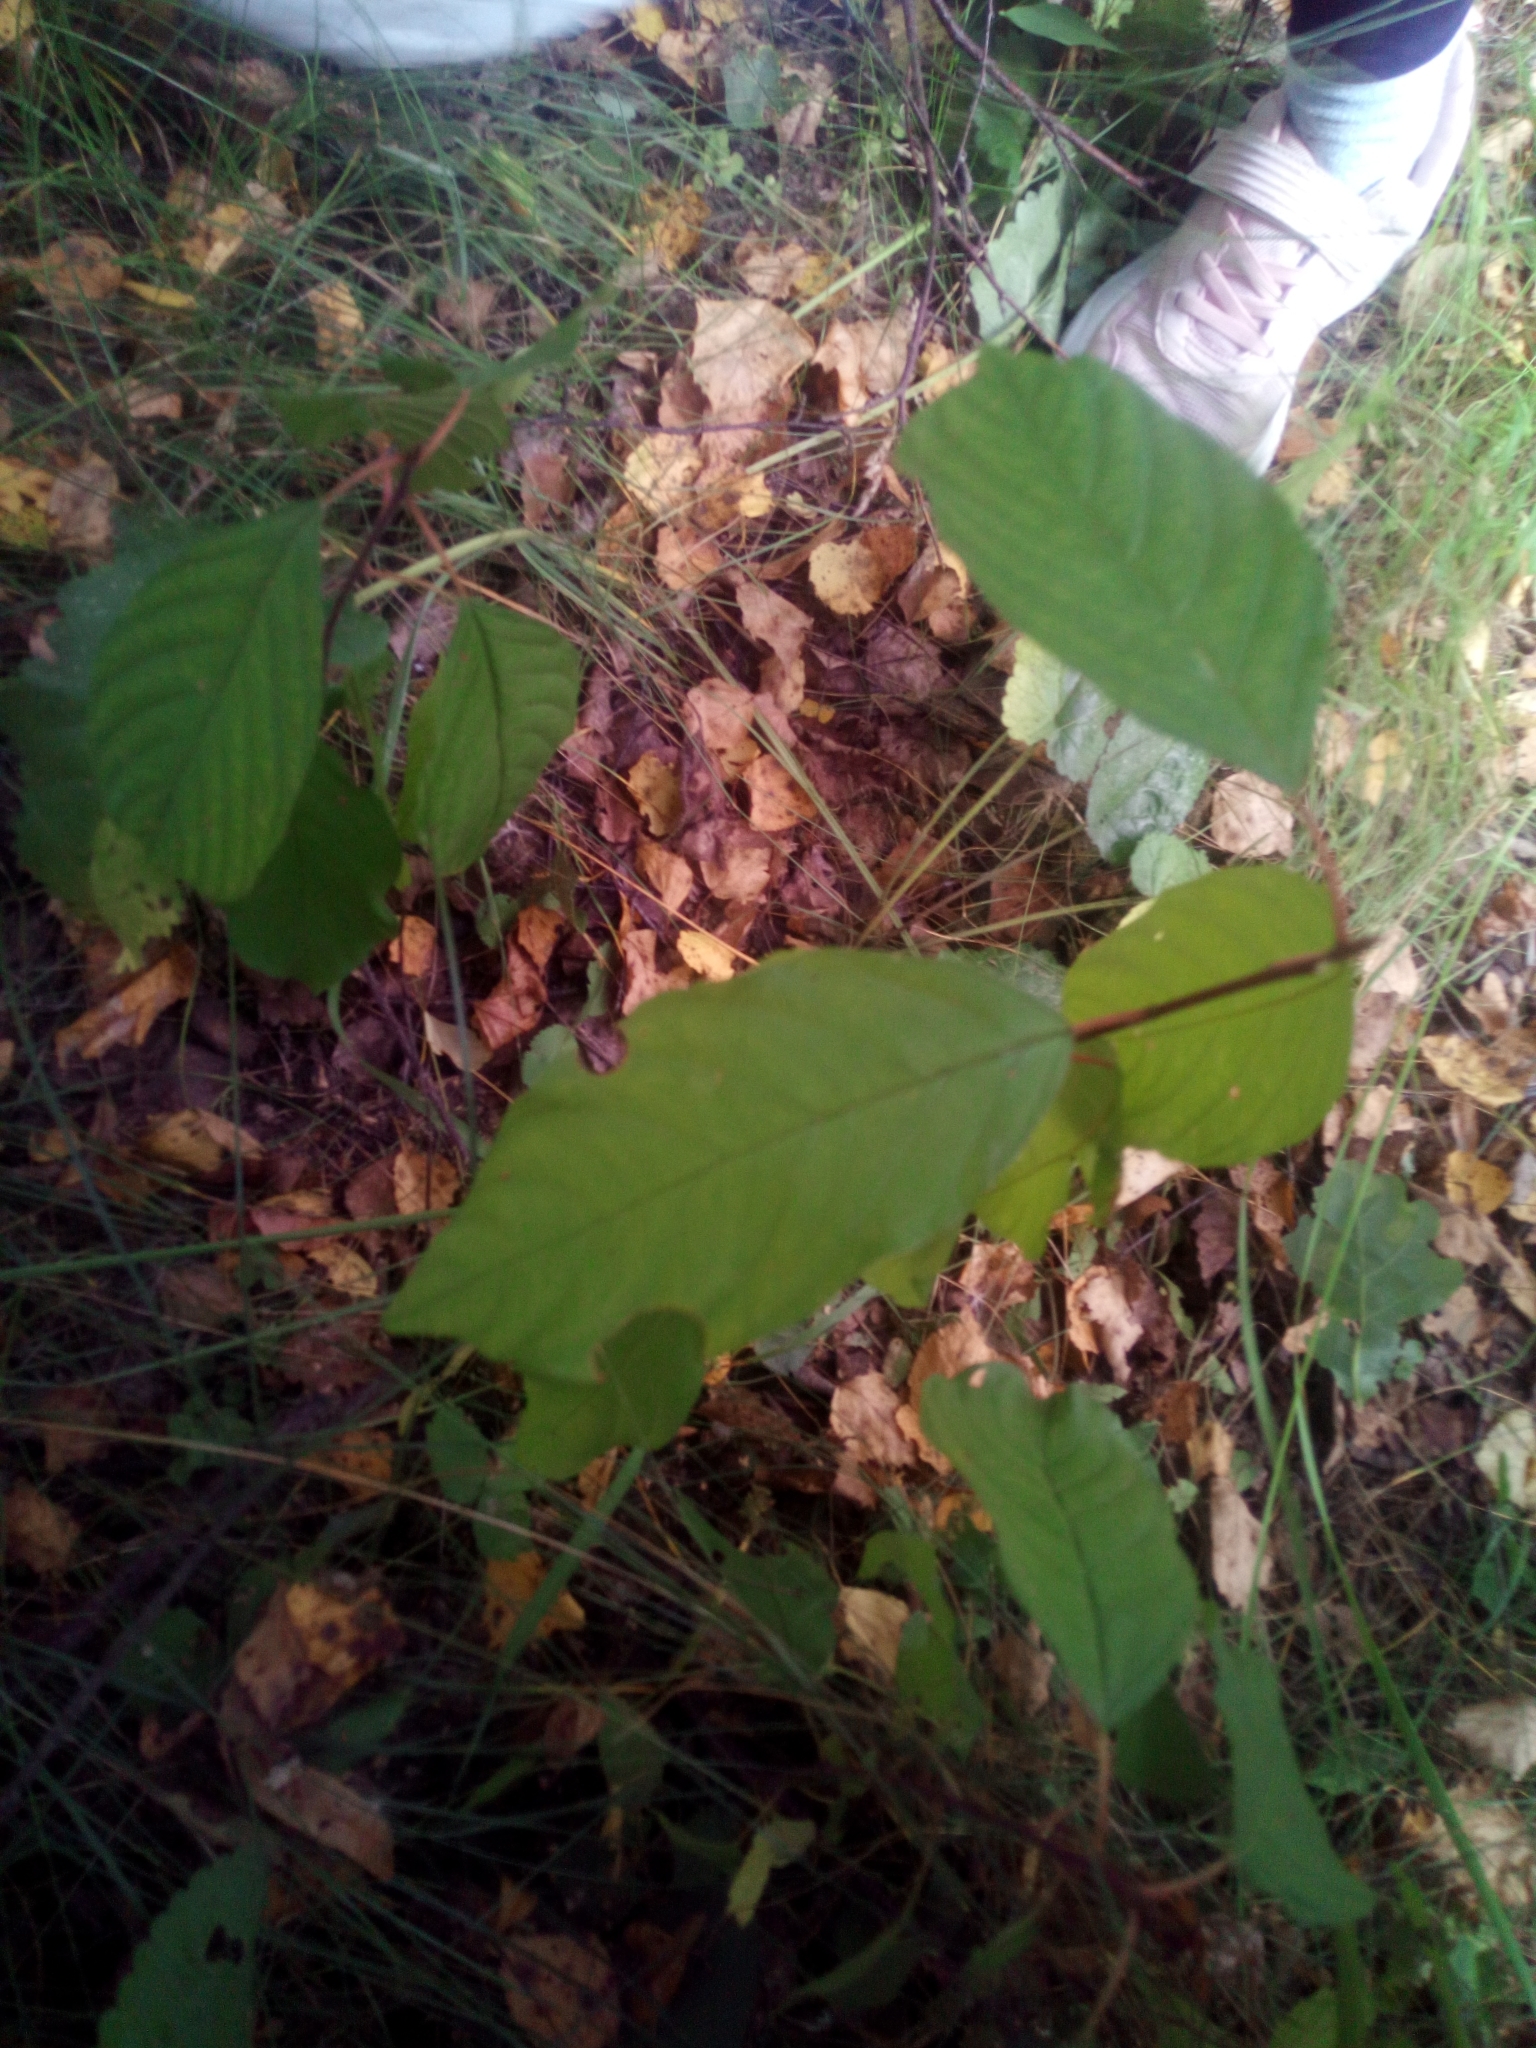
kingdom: Plantae
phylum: Tracheophyta
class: Magnoliopsida
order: Rosales
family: Rhamnaceae
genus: Frangula
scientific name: Frangula alnus
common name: Alder buckthorn
